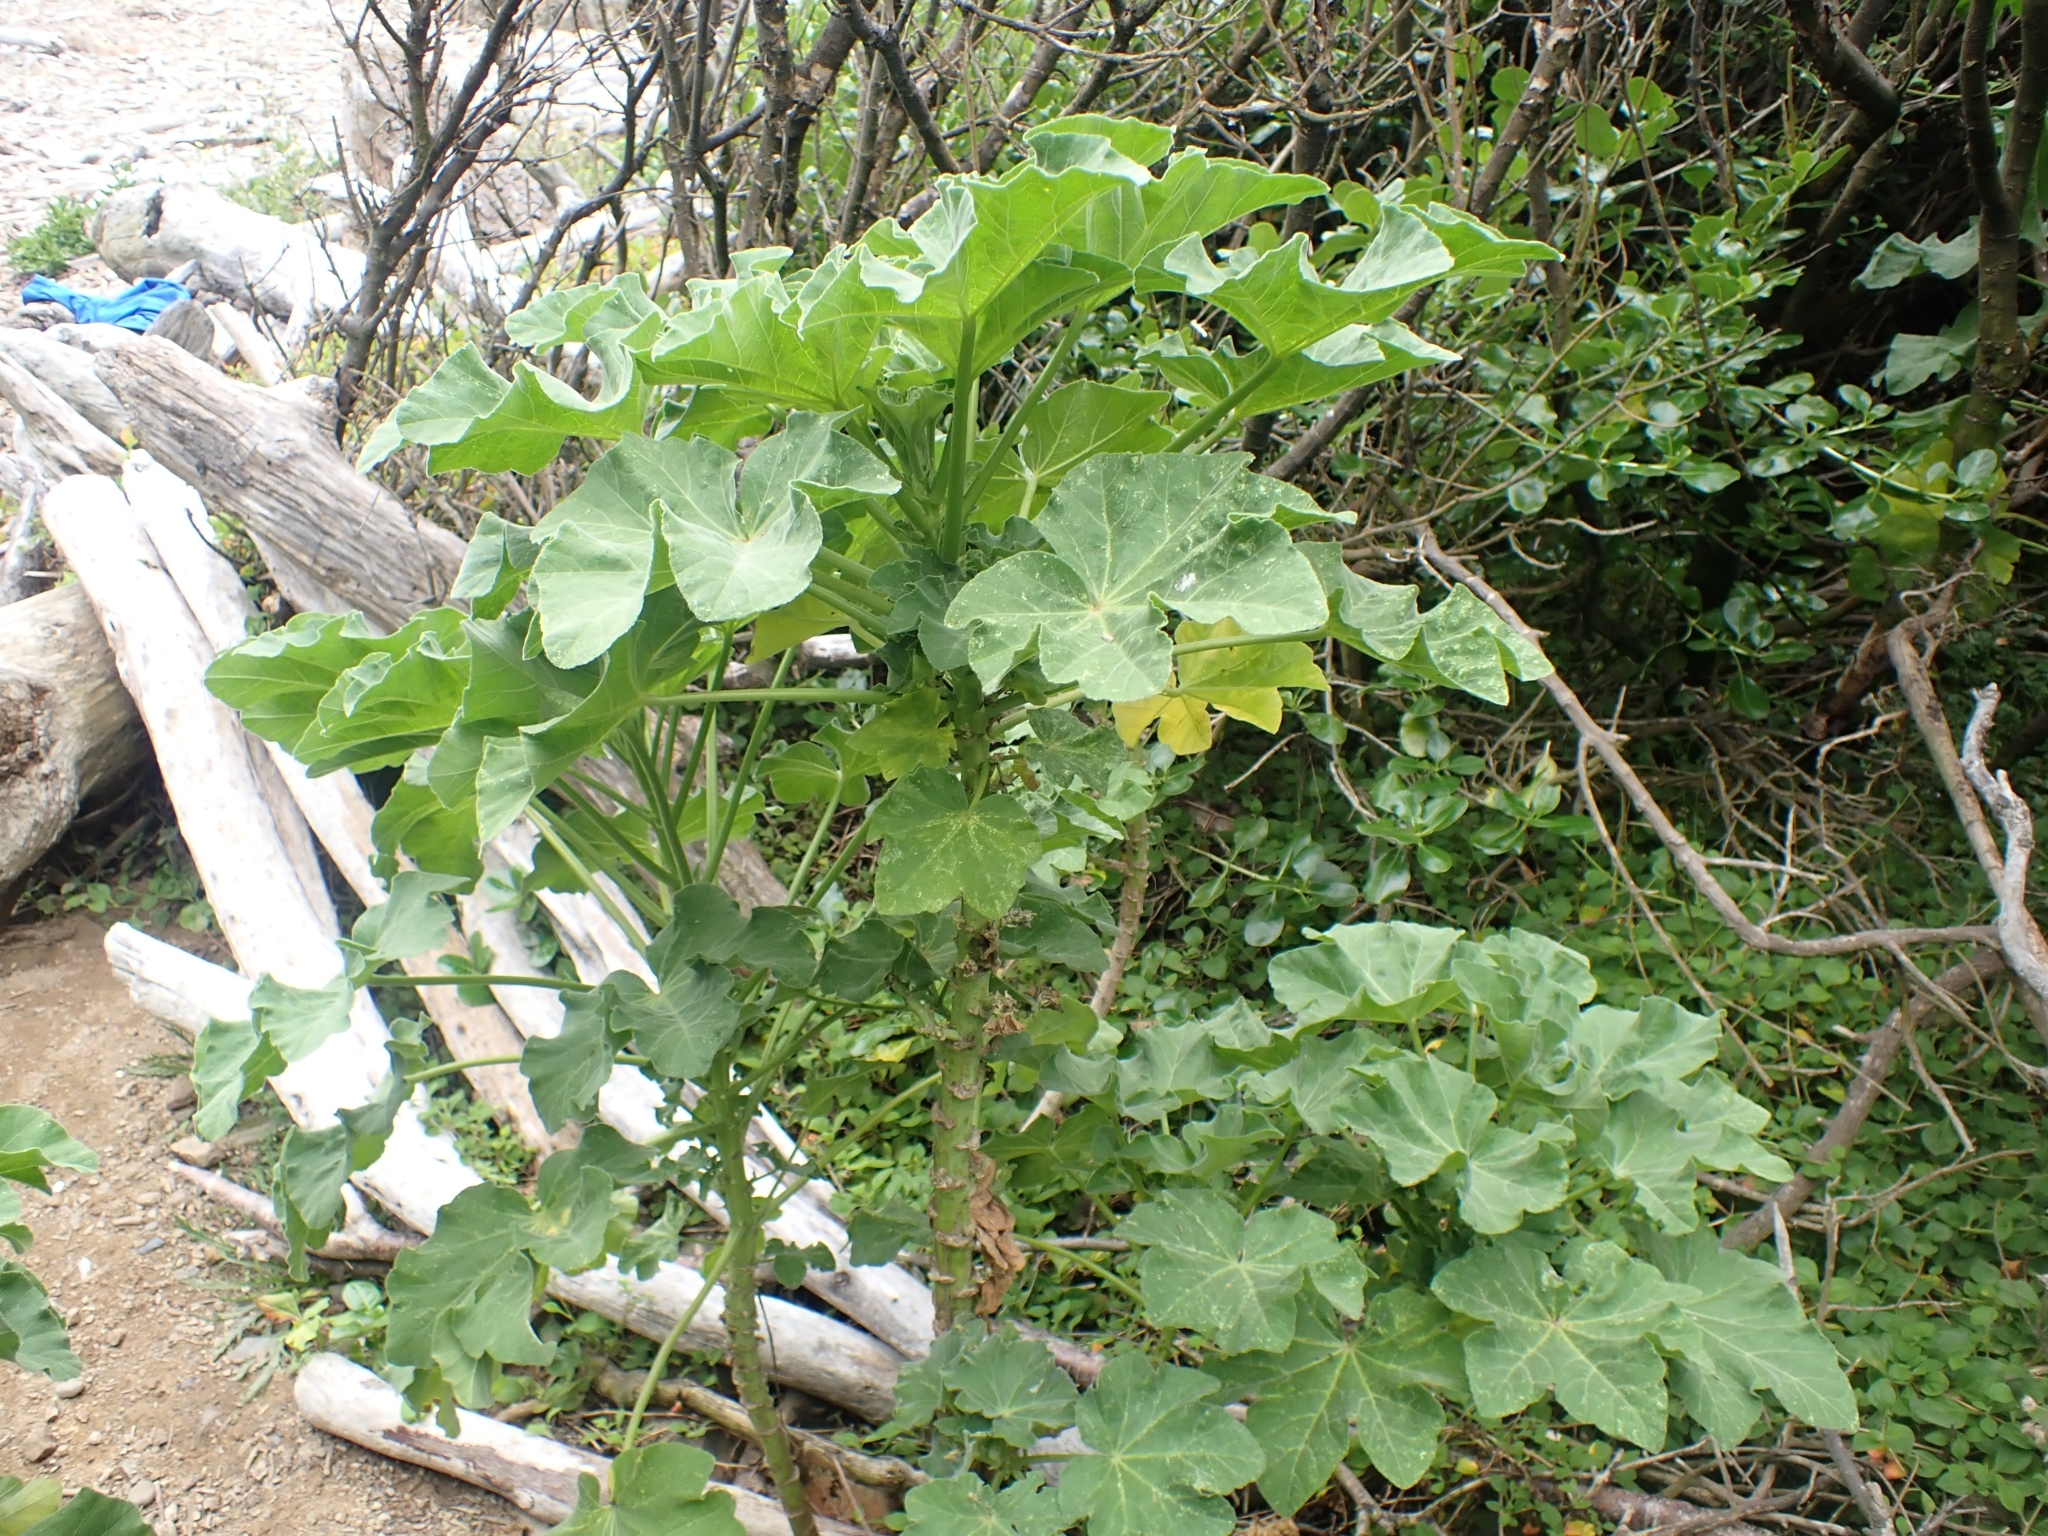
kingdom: Plantae
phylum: Tracheophyta
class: Magnoliopsida
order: Malvales
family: Malvaceae
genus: Malva
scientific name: Malva arborea
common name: Tree mallow
